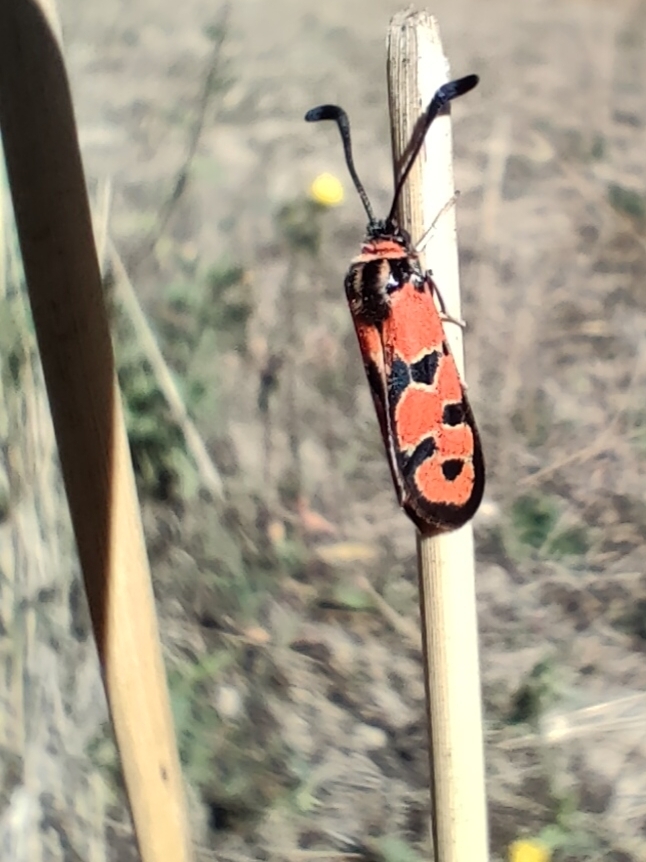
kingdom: Animalia
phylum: Arthropoda
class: Insecta
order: Lepidoptera
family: Zygaenidae
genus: Zygaena
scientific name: Zygaena fausta
